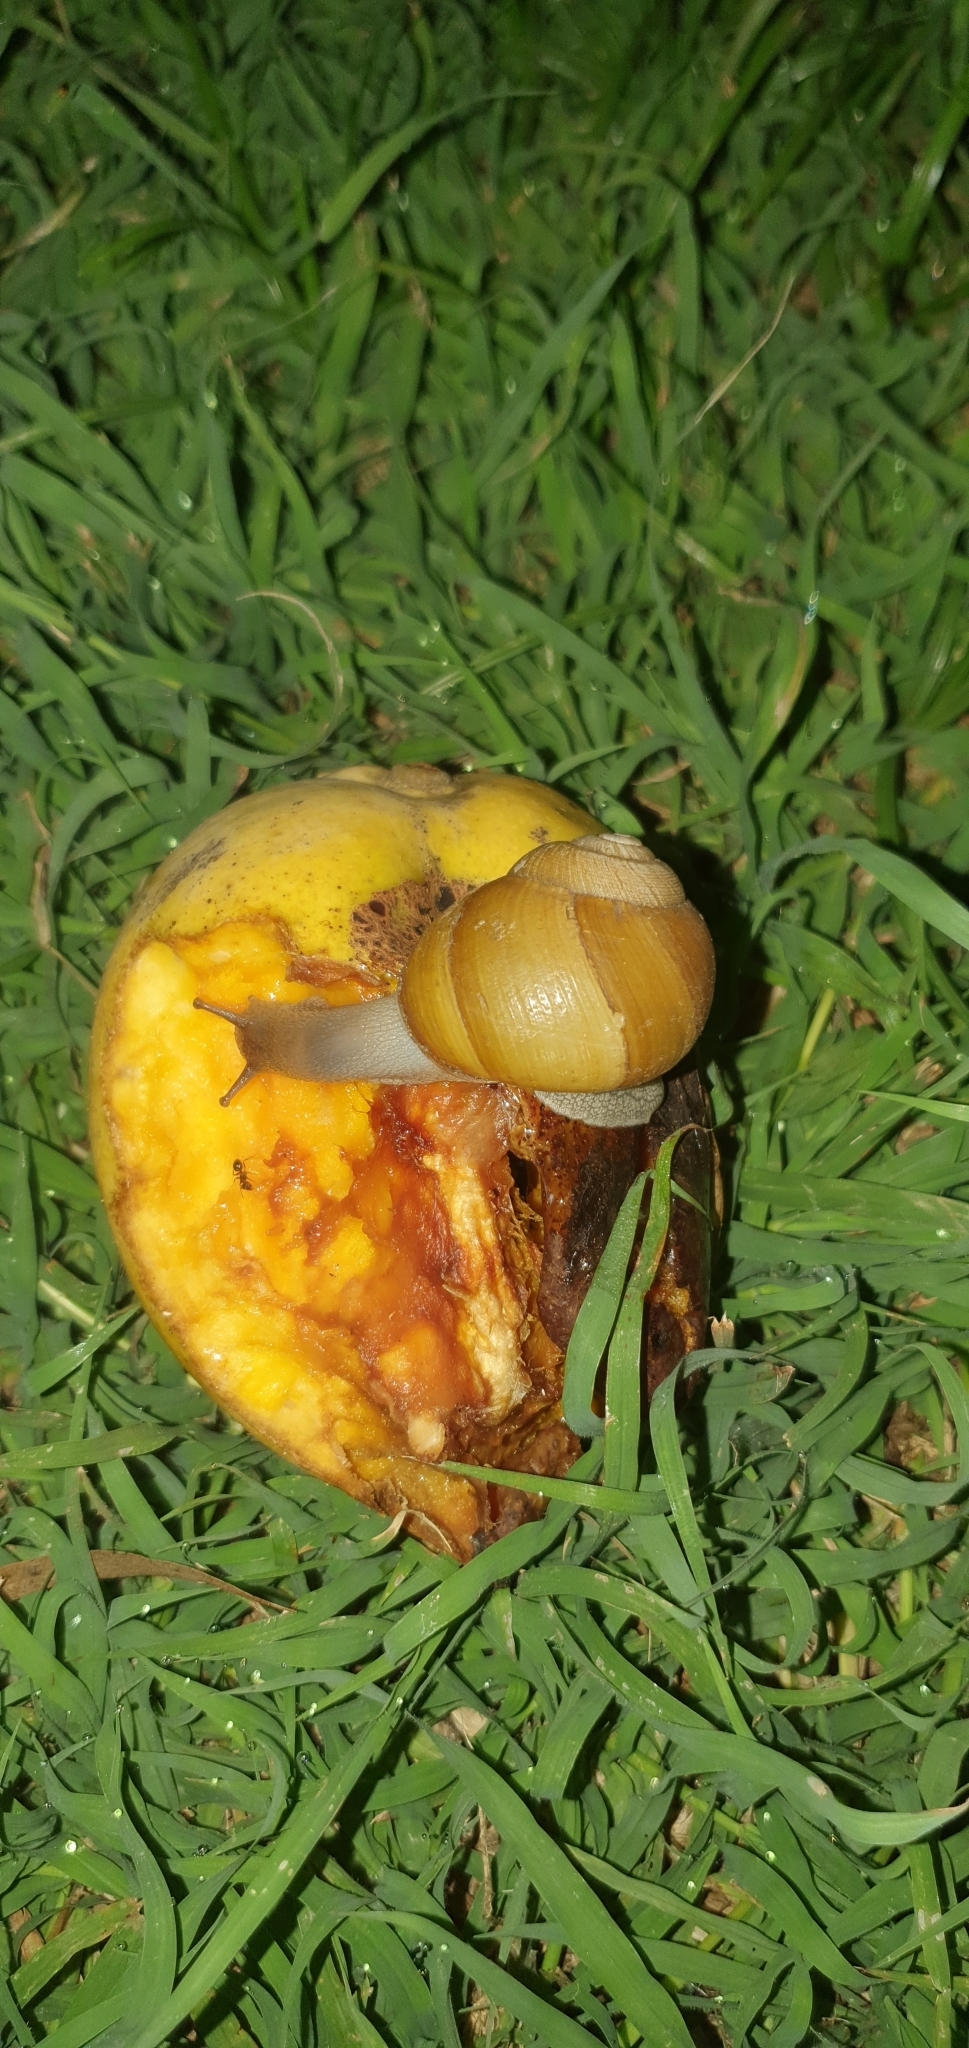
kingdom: Animalia
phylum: Mollusca
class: Gastropoda
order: Stylommatophora
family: Camaenidae
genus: Xanthomelon
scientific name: Xanthomelon pachystylum
